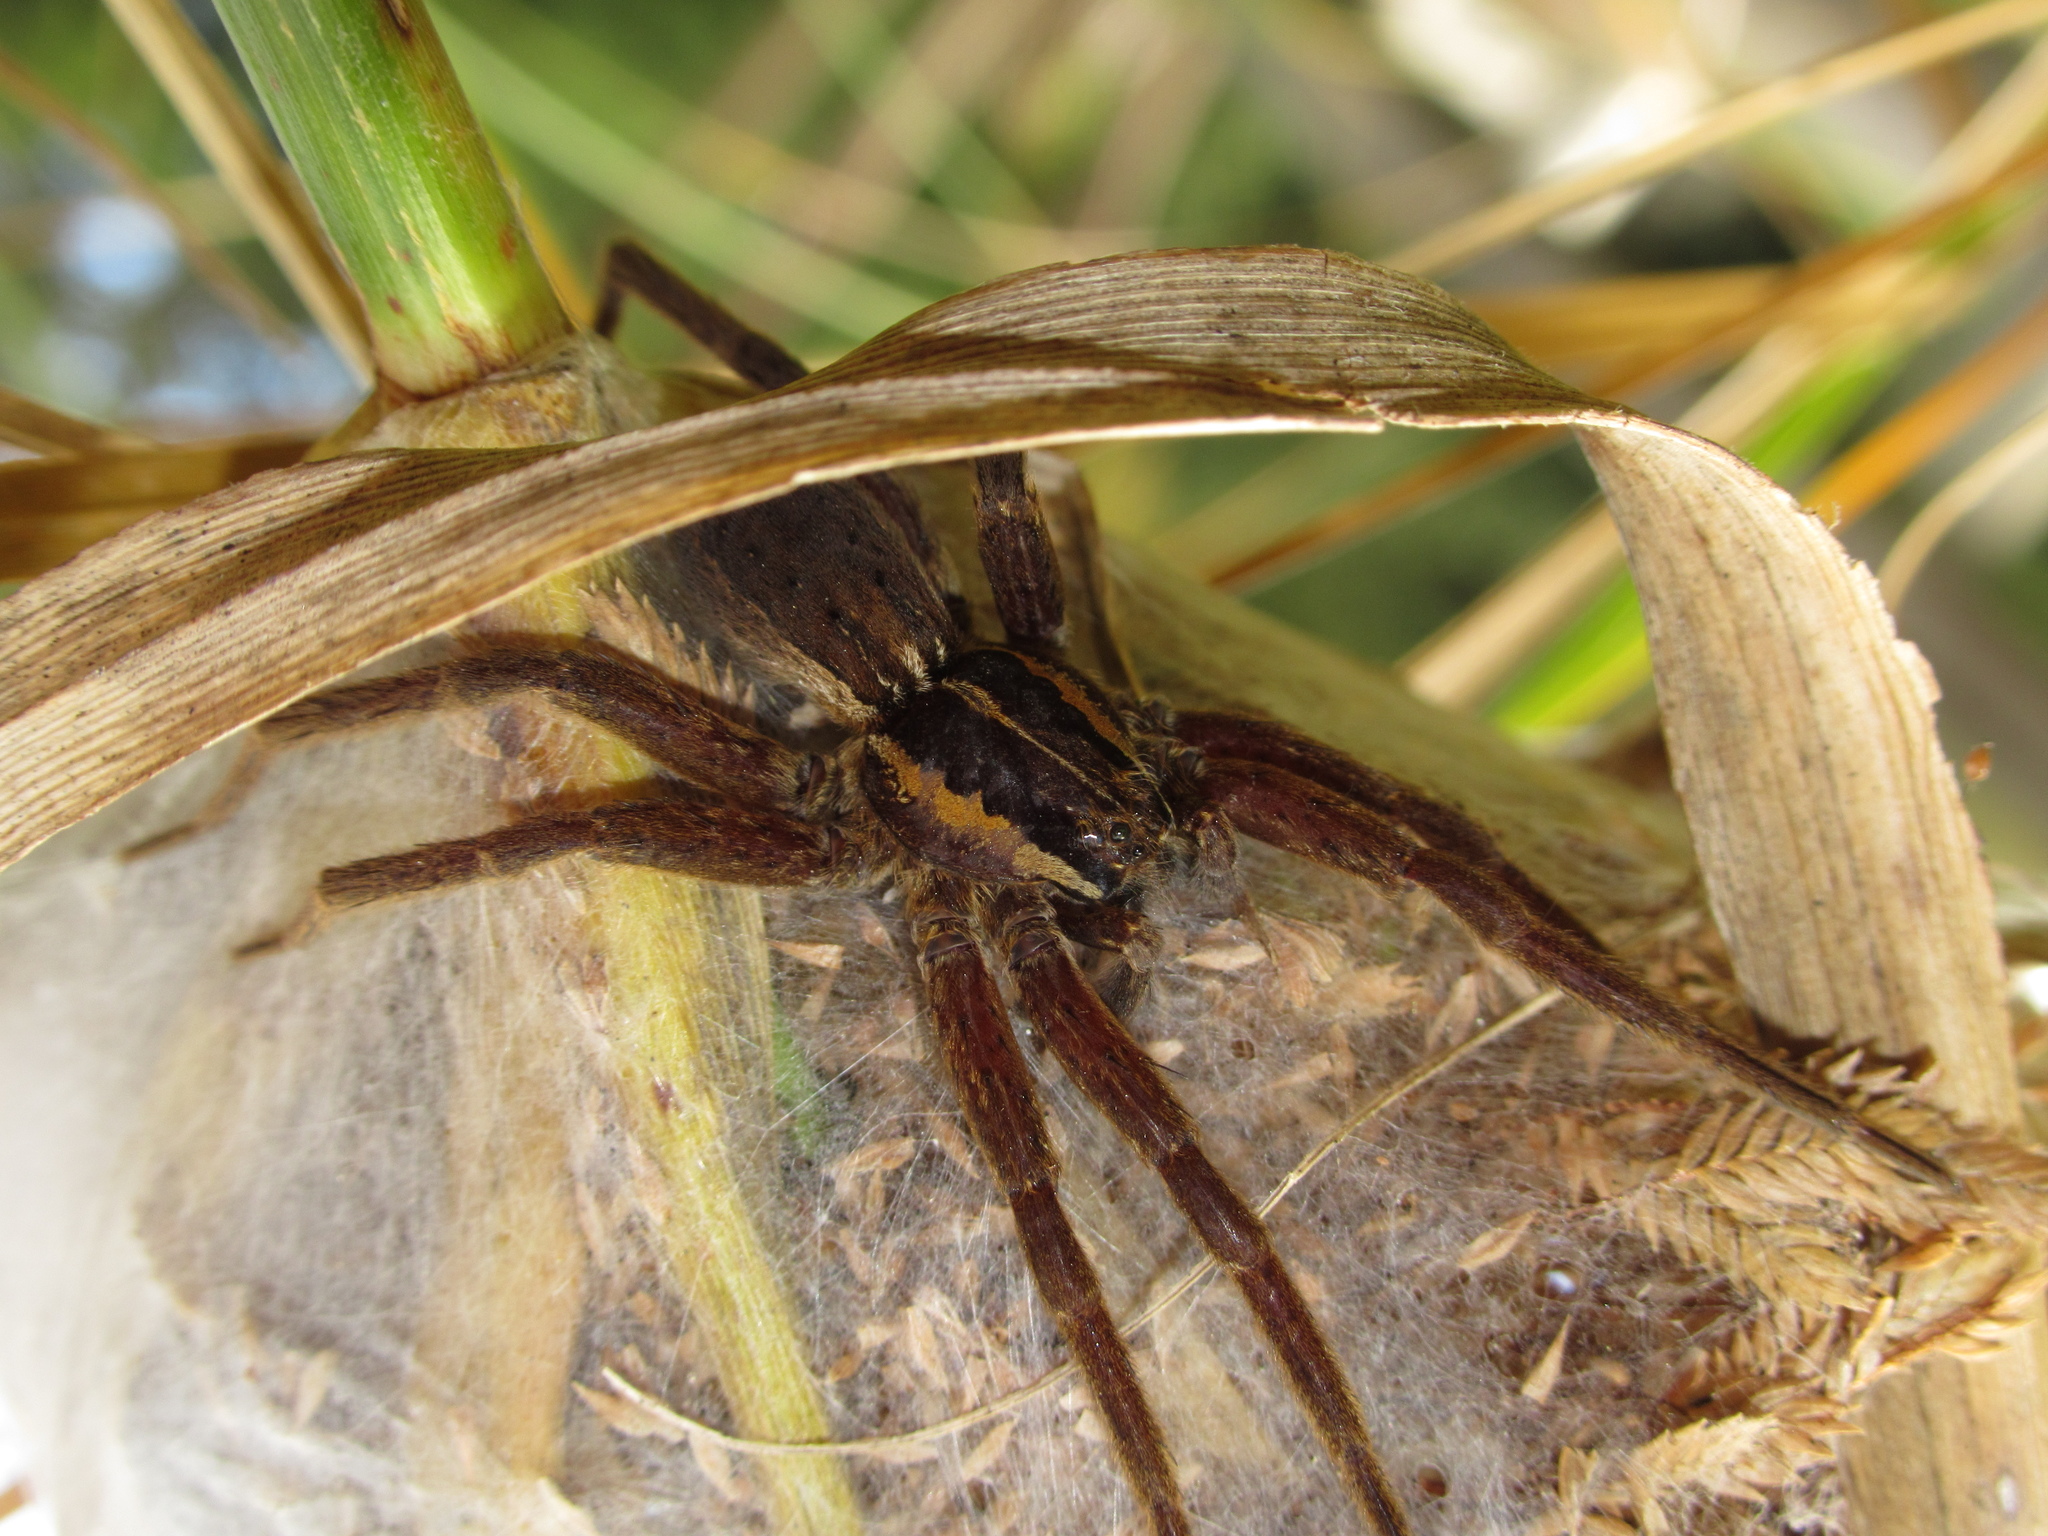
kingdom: Animalia
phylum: Arthropoda
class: Arachnida
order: Araneae
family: Pisauridae
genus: Dolomedes
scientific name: Dolomedes minor
